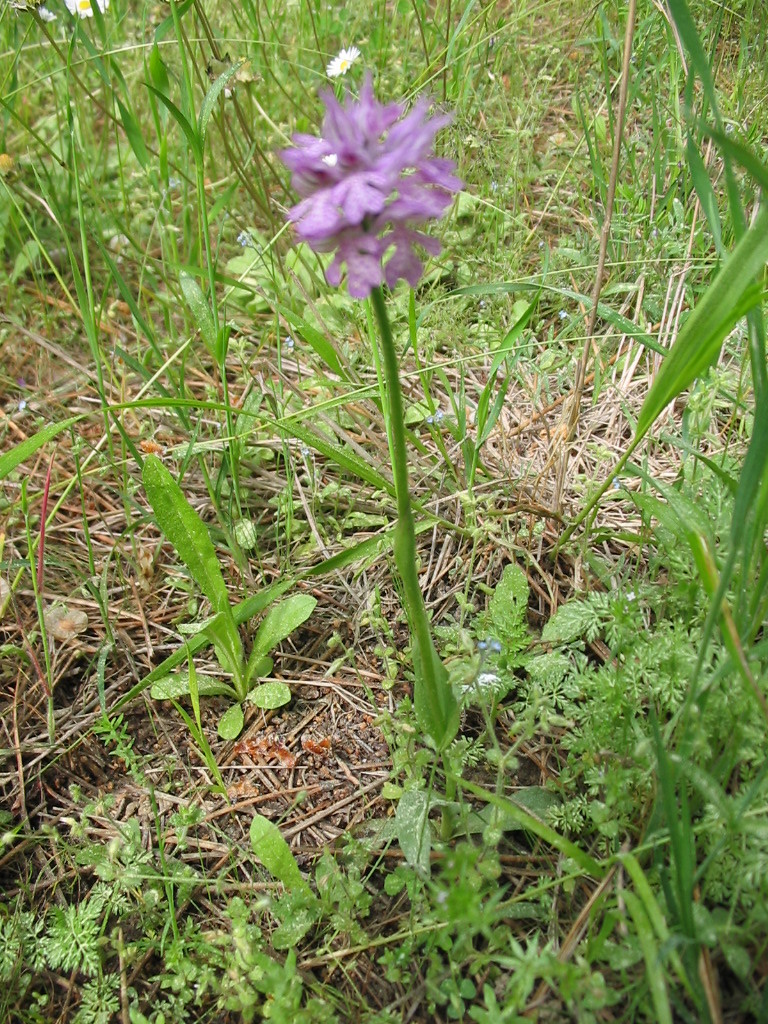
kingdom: Plantae
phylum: Tracheophyta
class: Liliopsida
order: Asparagales
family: Orchidaceae
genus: Neotinea
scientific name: Neotinea tridentata
